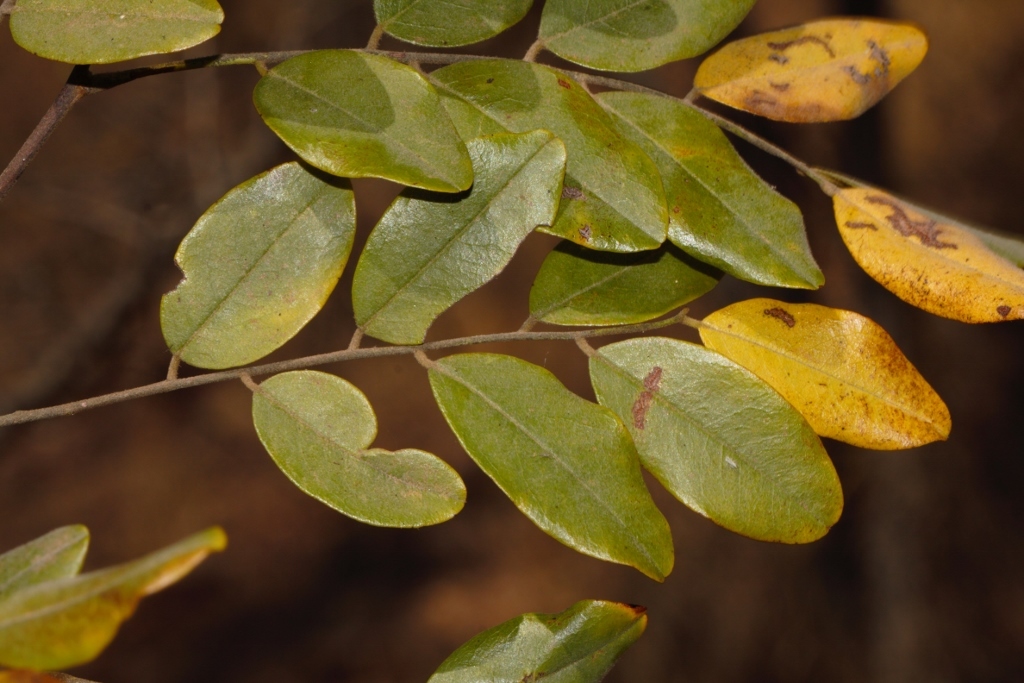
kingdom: Plantae
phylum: Tracheophyta
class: Magnoliopsida
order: Fabales
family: Fabaceae
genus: Dalbergia
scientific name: Dalbergia nitidula
